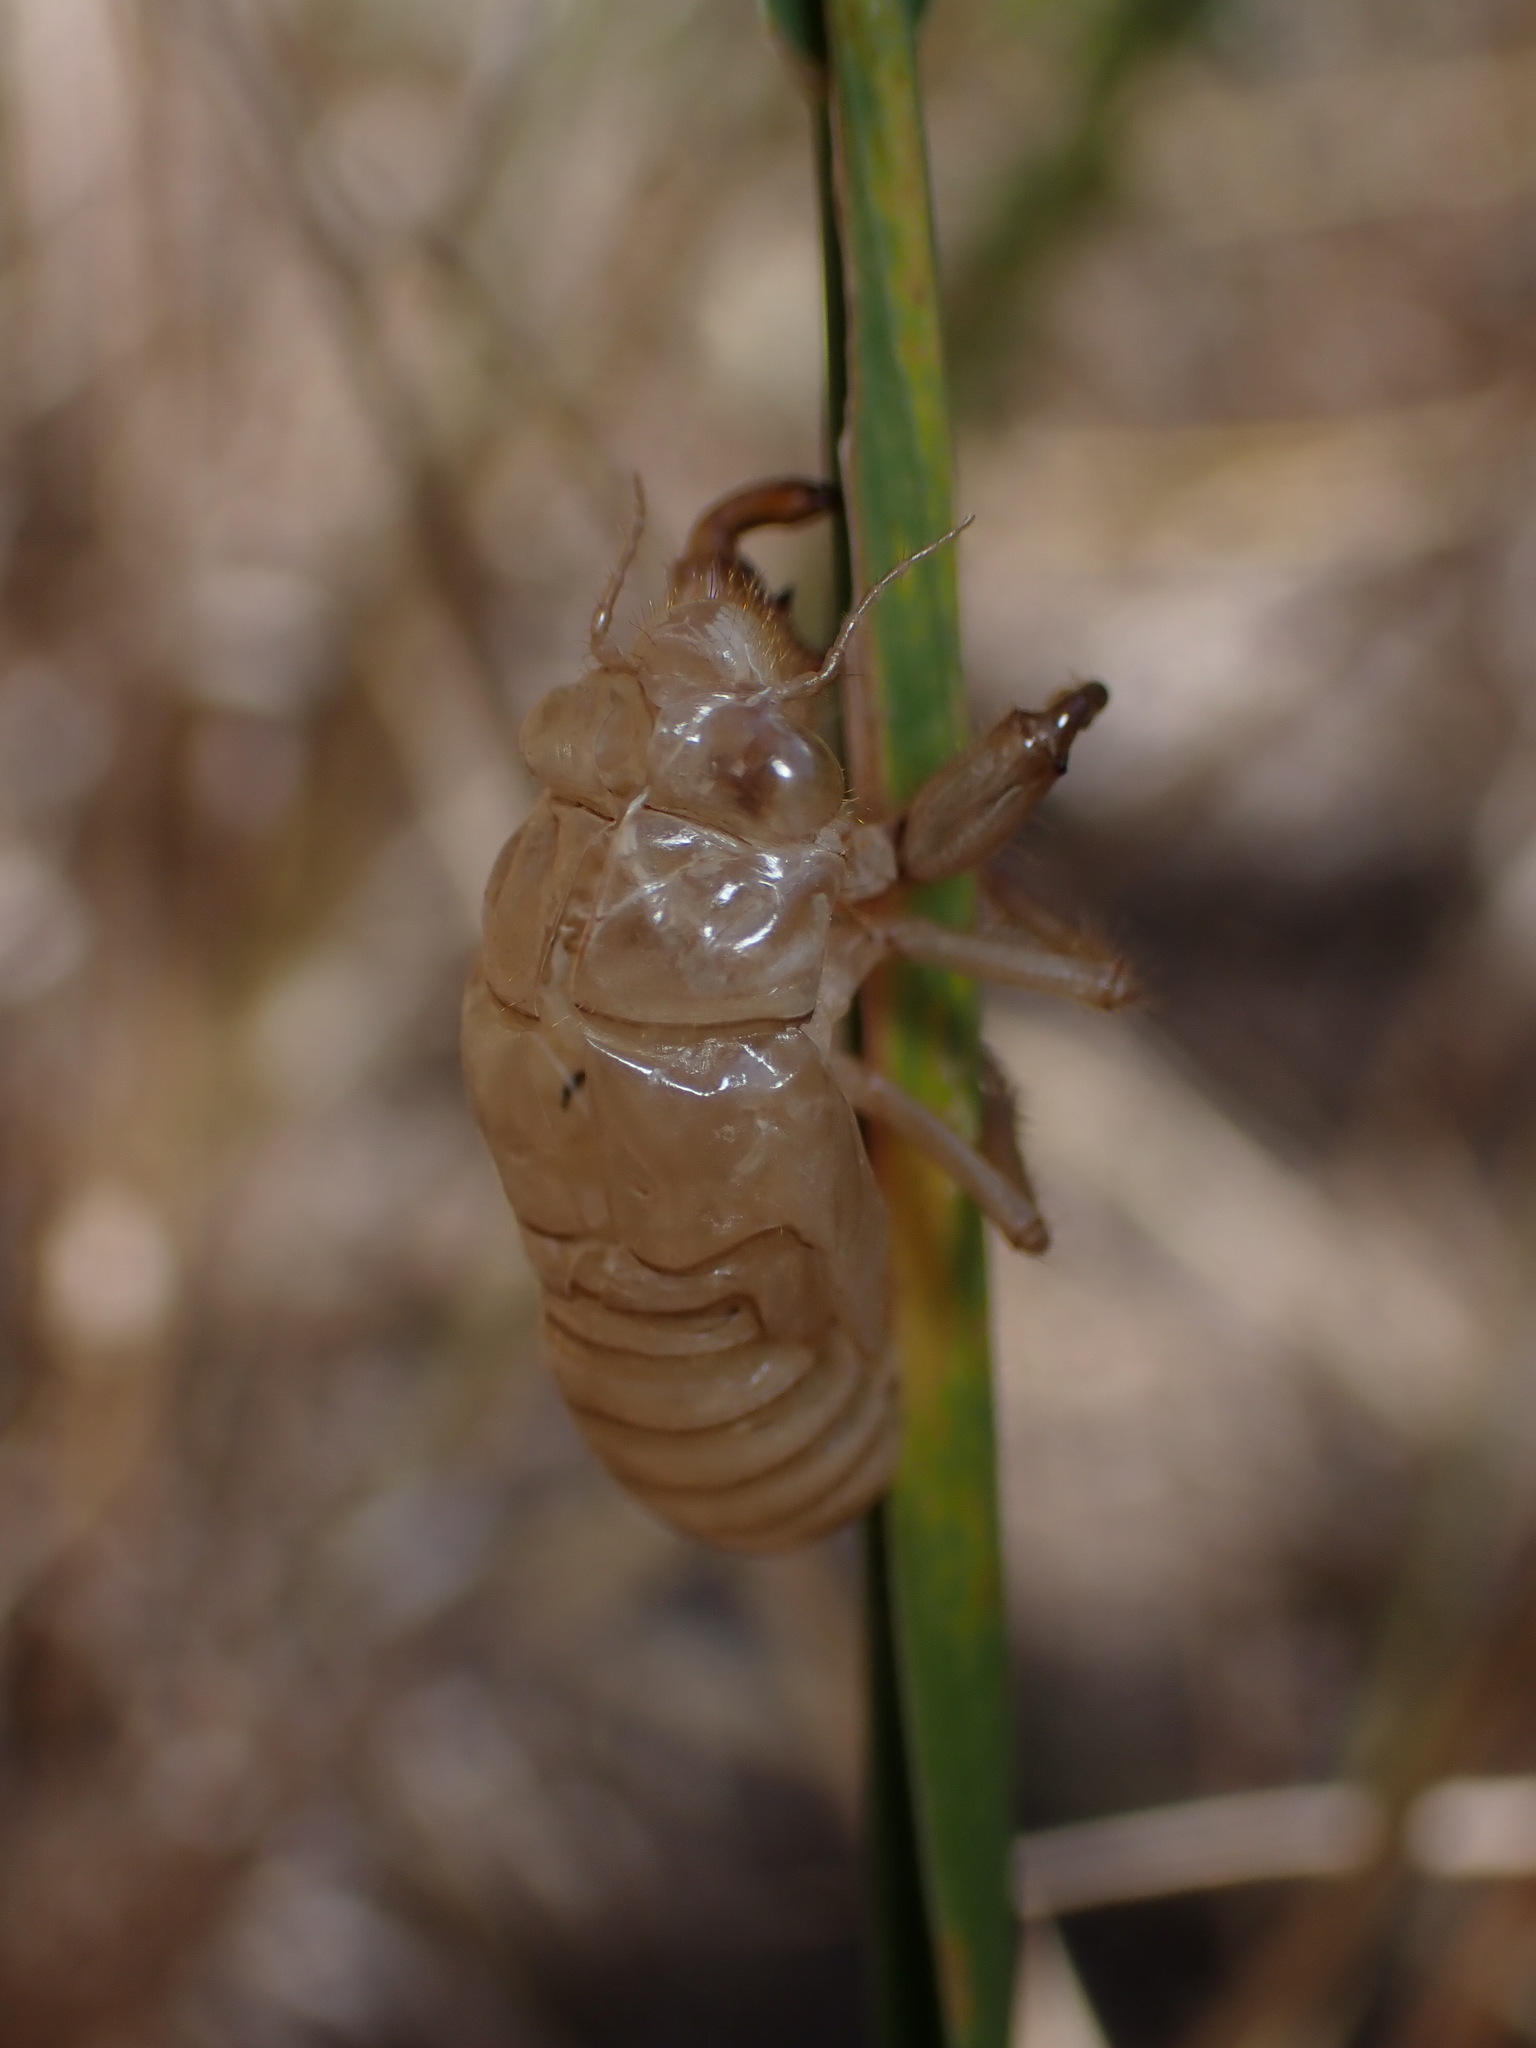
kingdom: Animalia
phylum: Arthropoda
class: Insecta
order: Hemiptera
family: Cicadidae
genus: Cicada
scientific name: Cicada orni
